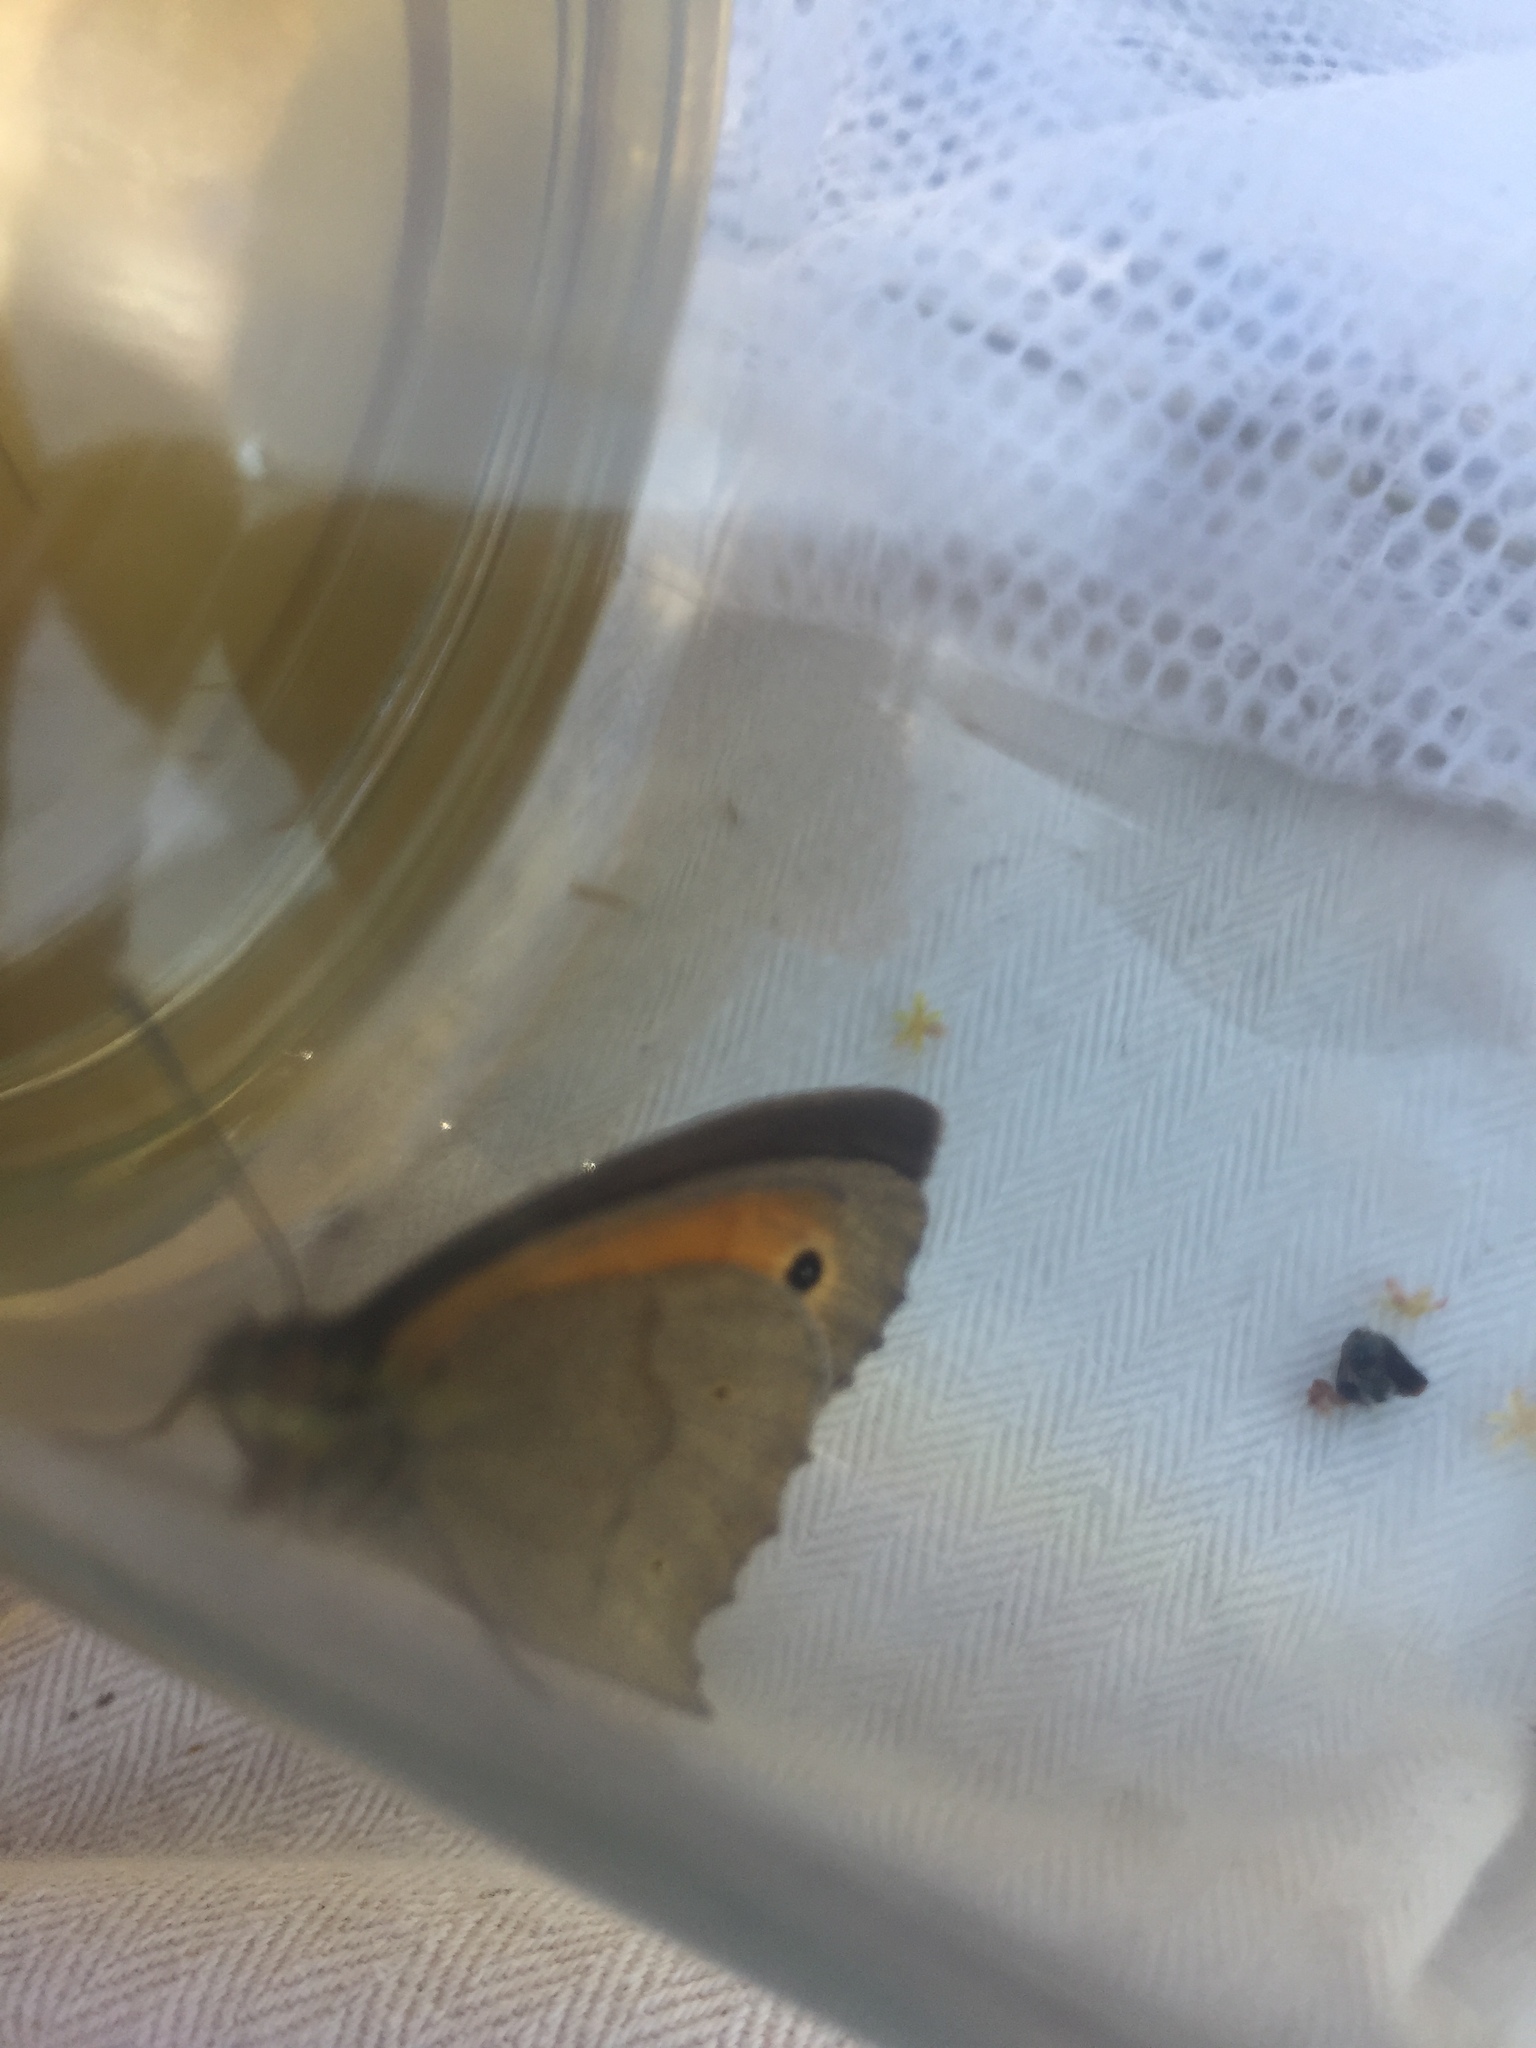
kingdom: Animalia
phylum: Arthropoda
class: Insecta
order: Lepidoptera
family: Nymphalidae
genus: Maniola
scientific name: Maniola jurtina
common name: Meadow brown
